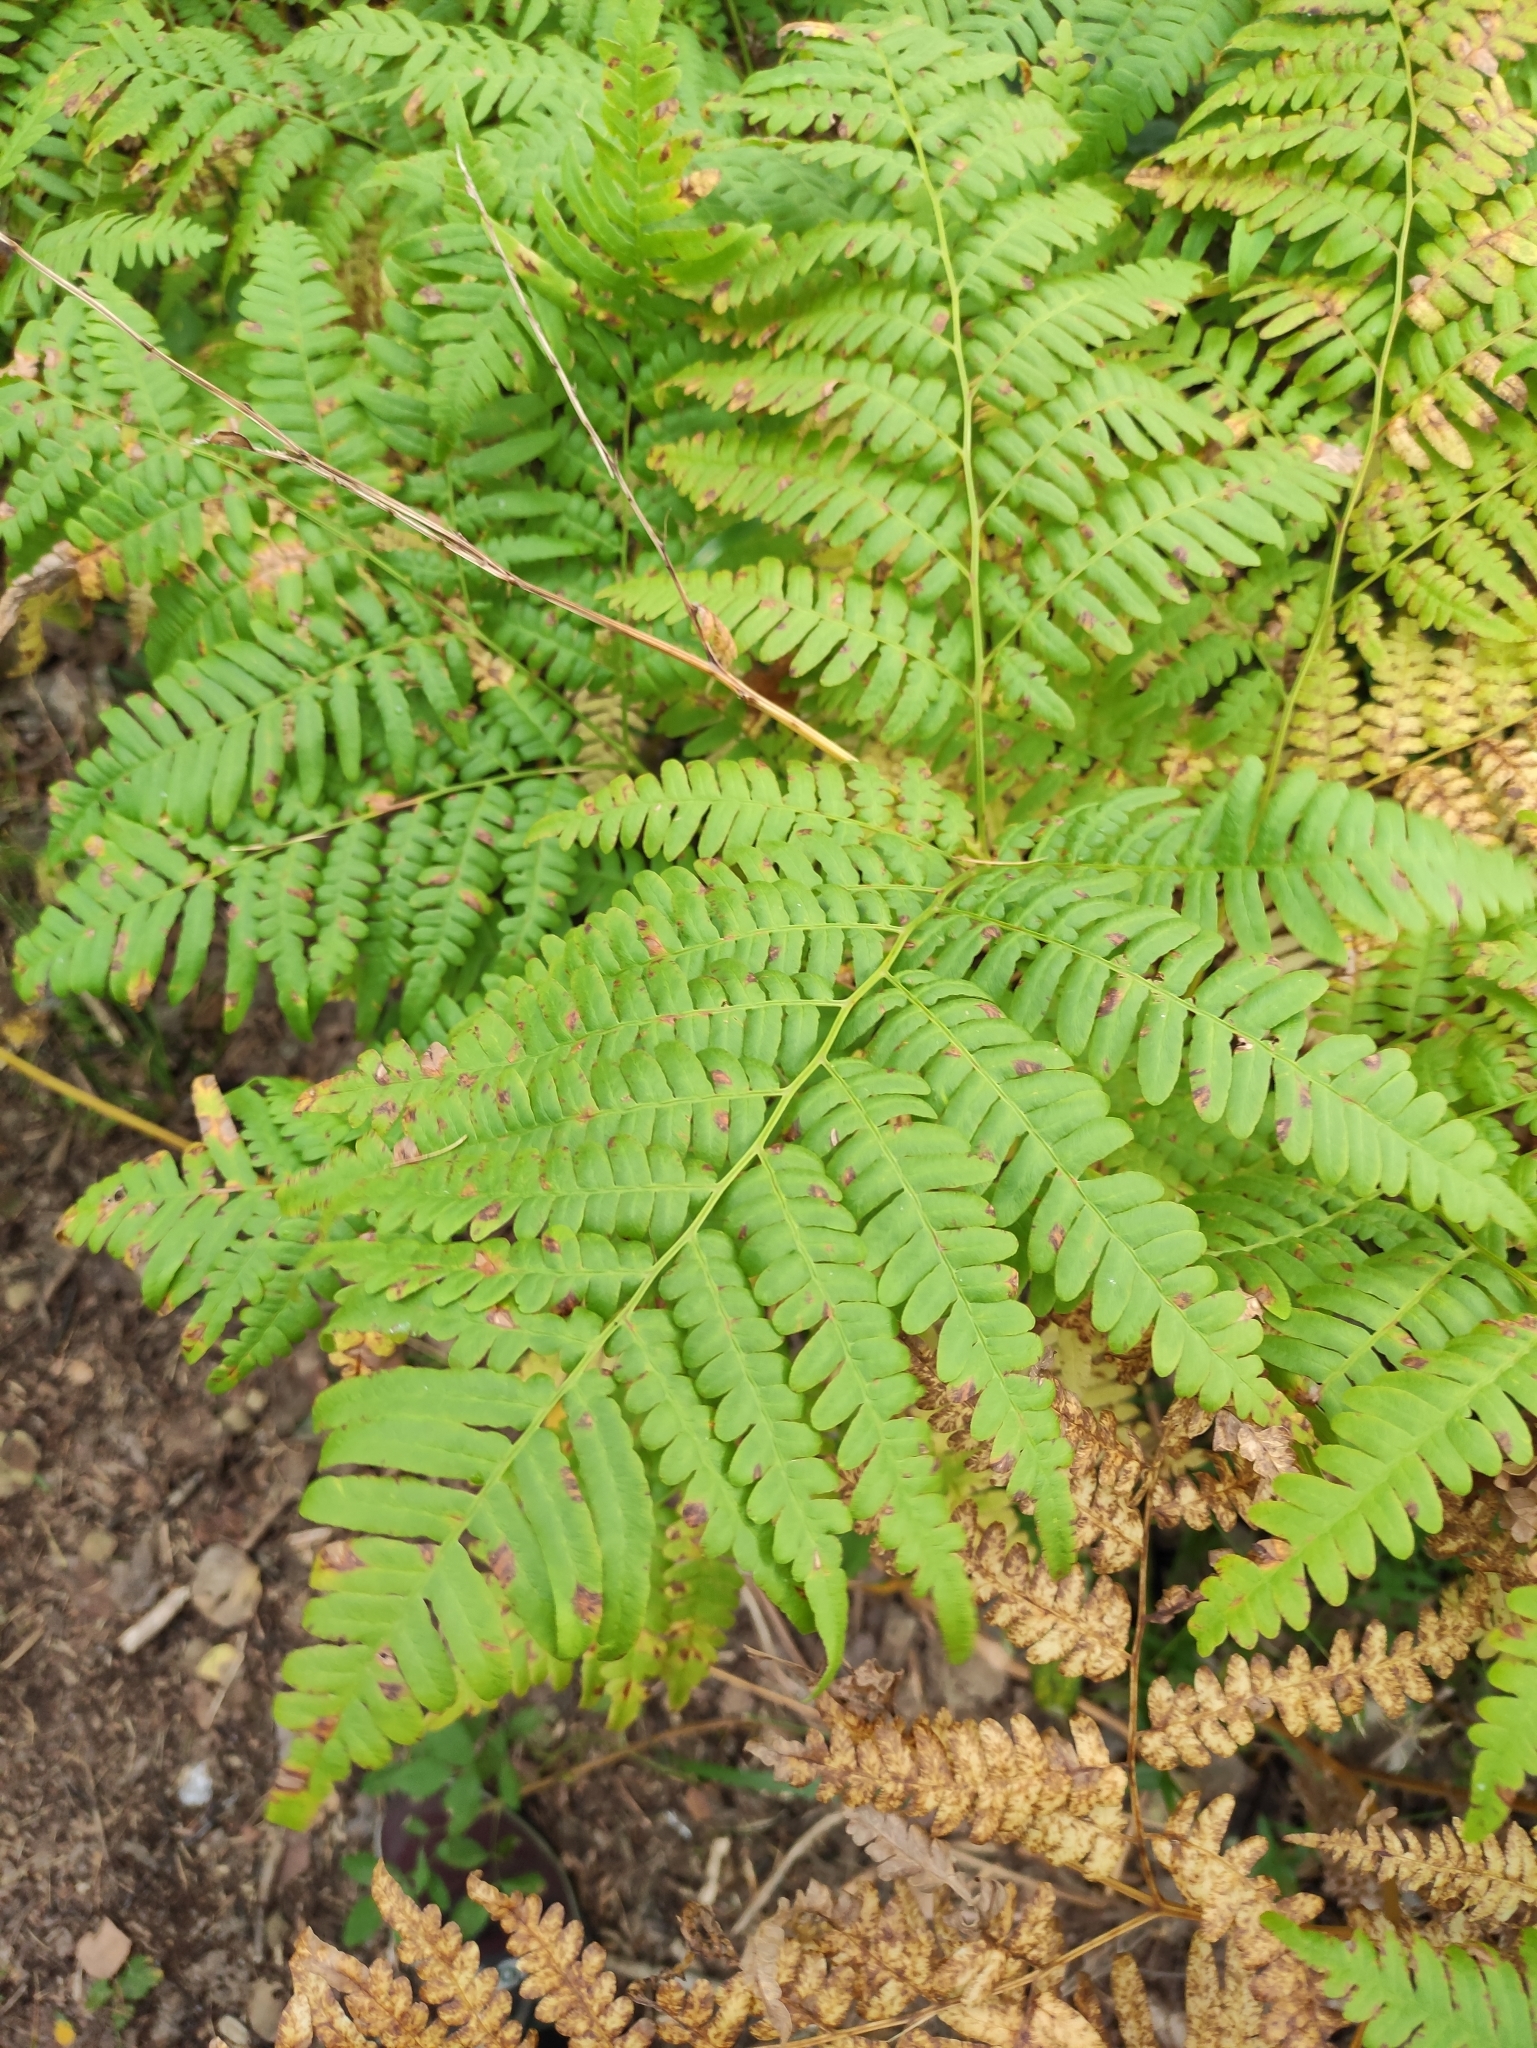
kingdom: Plantae
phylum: Tracheophyta
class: Polypodiopsida
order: Polypodiales
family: Dennstaedtiaceae
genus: Pteridium
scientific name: Pteridium aquilinum
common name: Bracken
